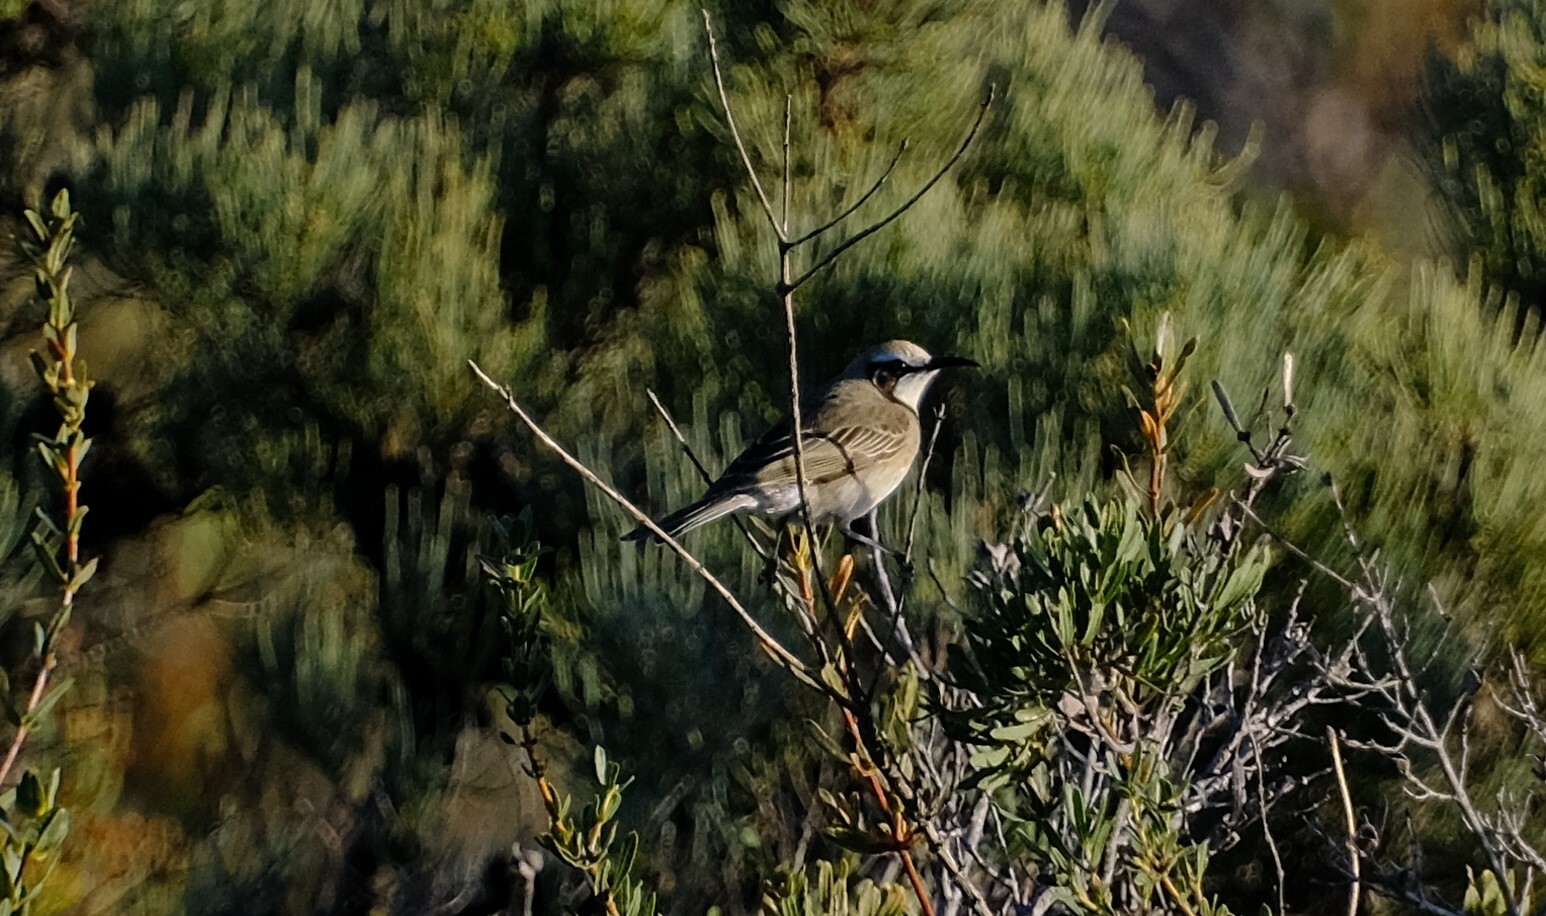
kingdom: Animalia
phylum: Chordata
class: Aves
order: Passeriformes
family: Meliphagidae
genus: Gliciphila
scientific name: Gliciphila melanops
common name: Tawny-crowned honeyeater
